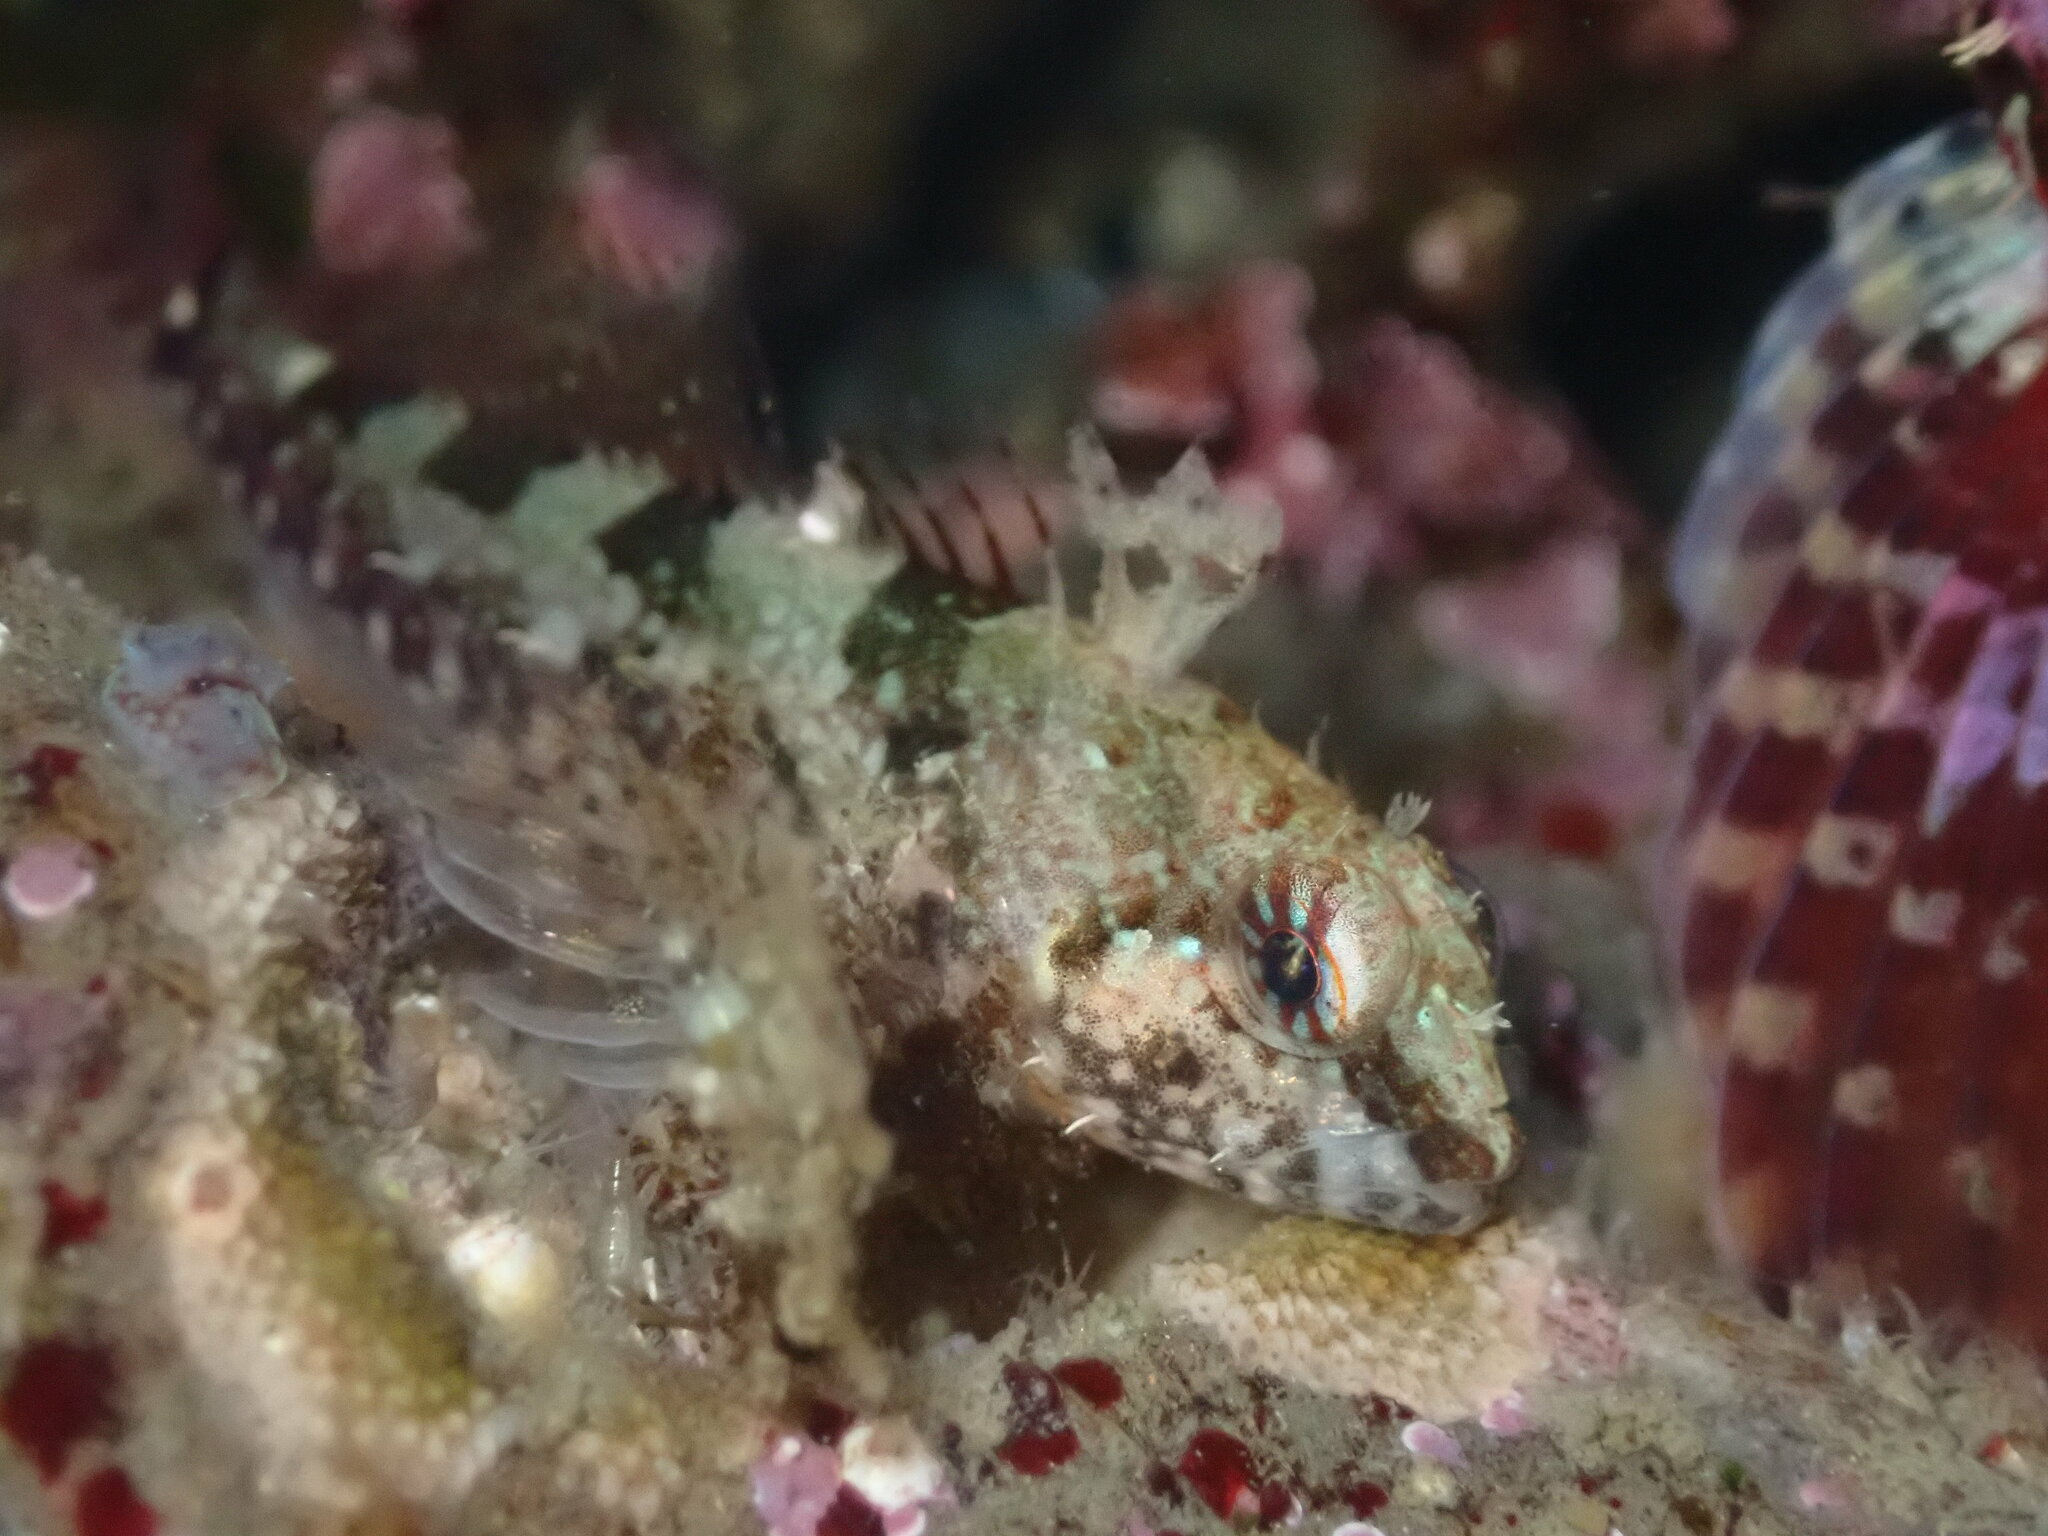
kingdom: Animalia
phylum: Chordata
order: Scorpaeniformes
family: Cottidae
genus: Artedius
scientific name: Artedius harringtoni
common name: Scalyhead sculpin
